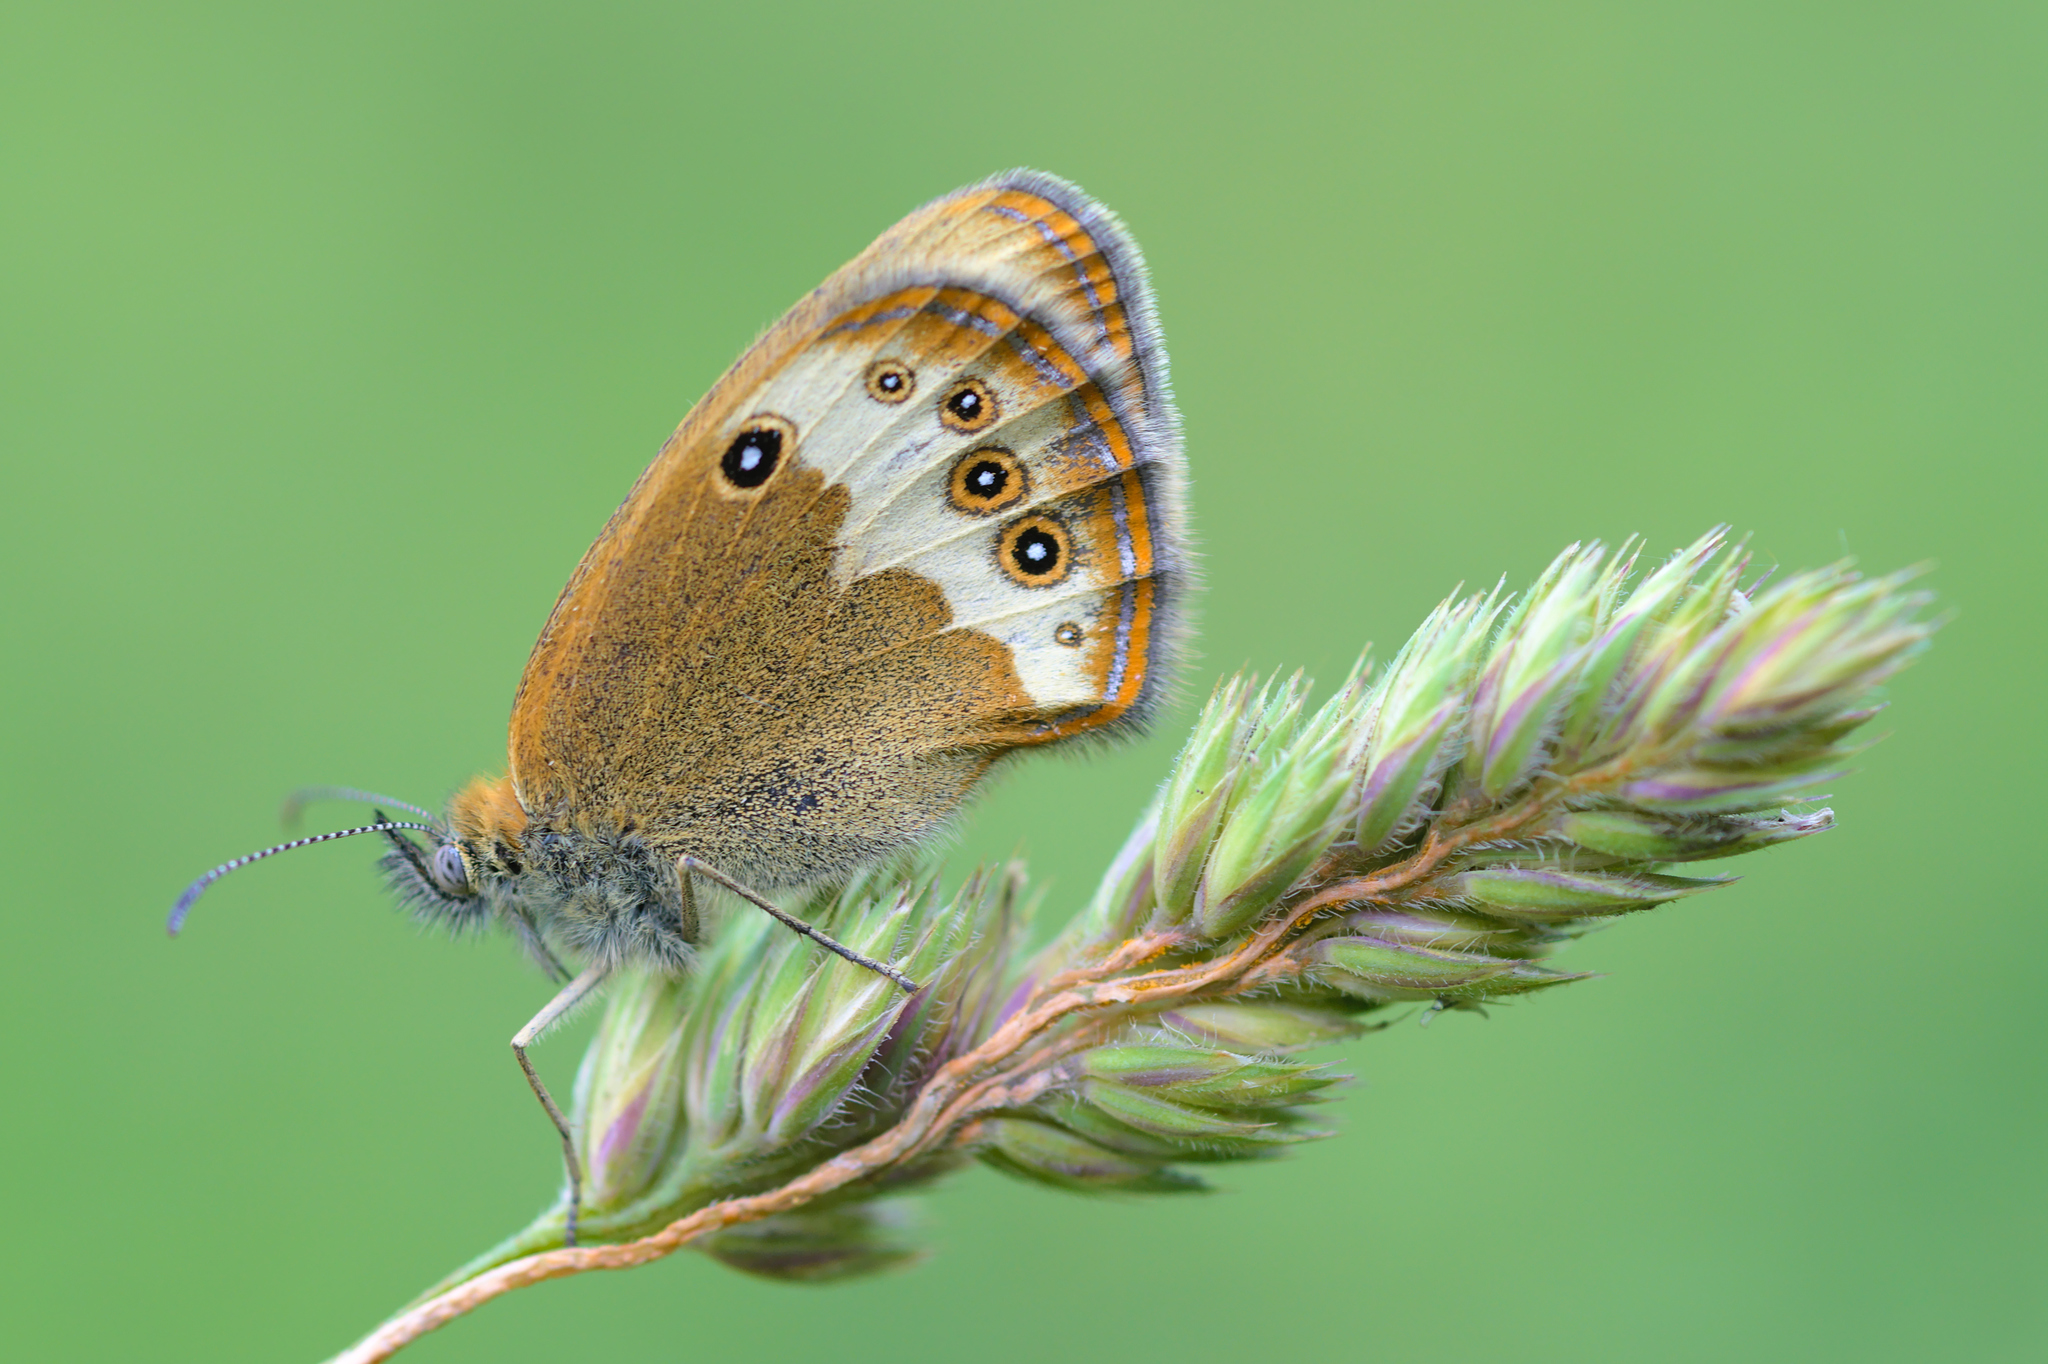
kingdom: Animalia
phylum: Arthropoda
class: Insecta
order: Lepidoptera
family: Nymphalidae
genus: Coenonympha
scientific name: Coenonympha arcania
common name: Pearly heath
